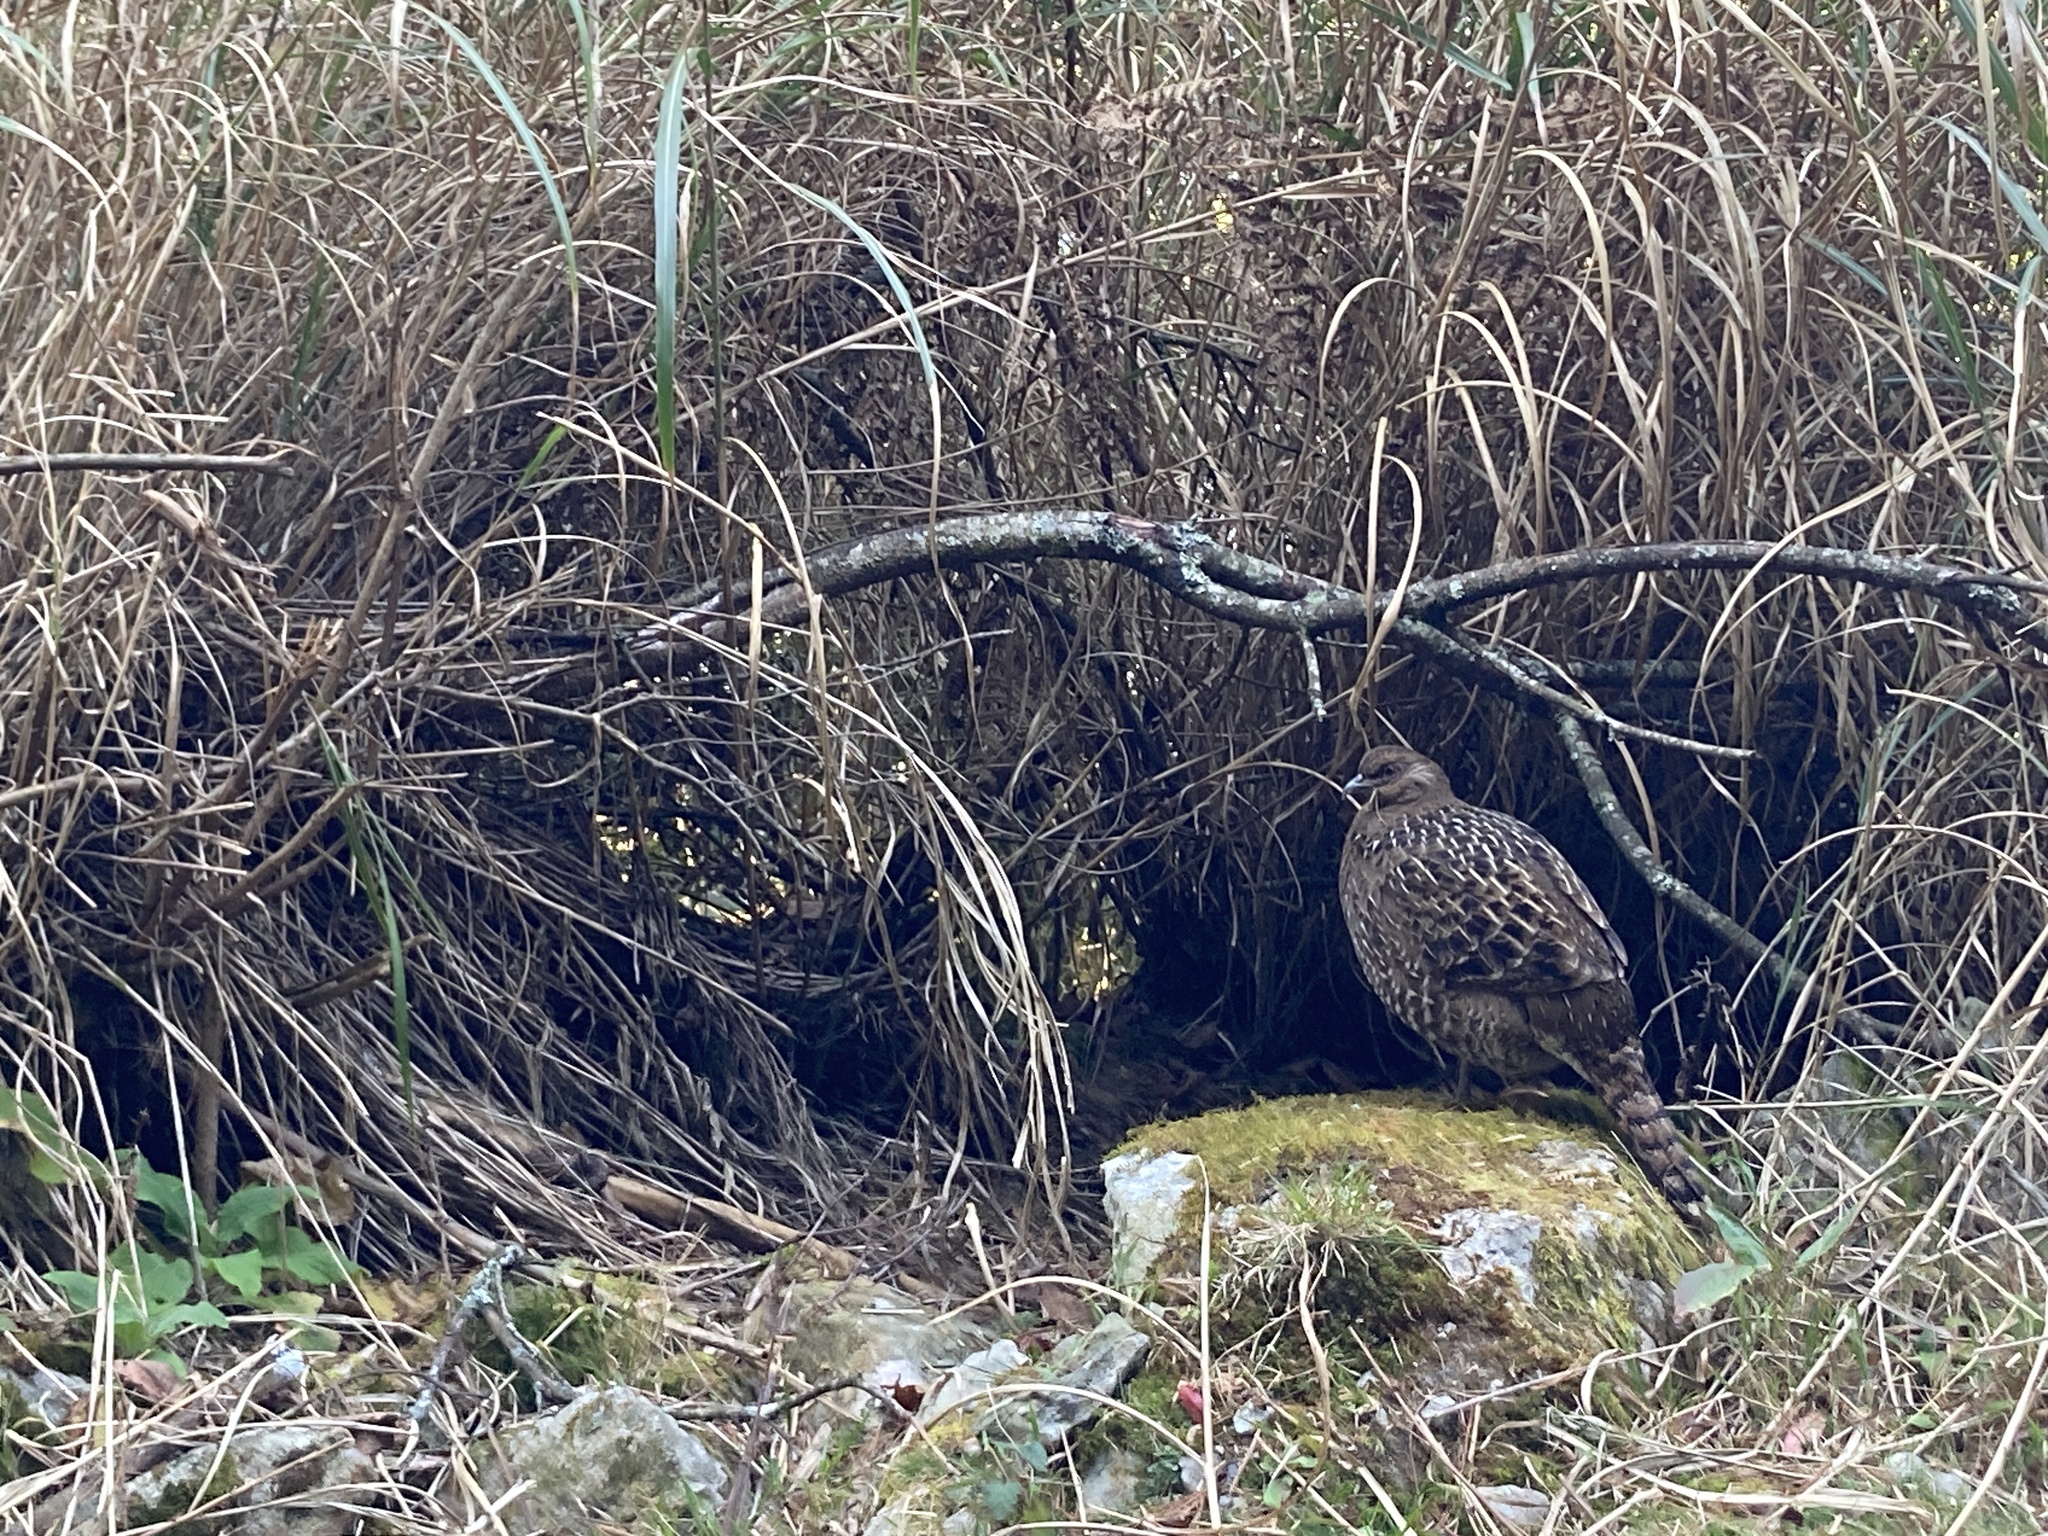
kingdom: Animalia
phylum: Chordata
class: Aves
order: Galliformes
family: Phasianidae
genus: Syrmaticus
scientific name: Syrmaticus mikado
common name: Mikado pheasant
